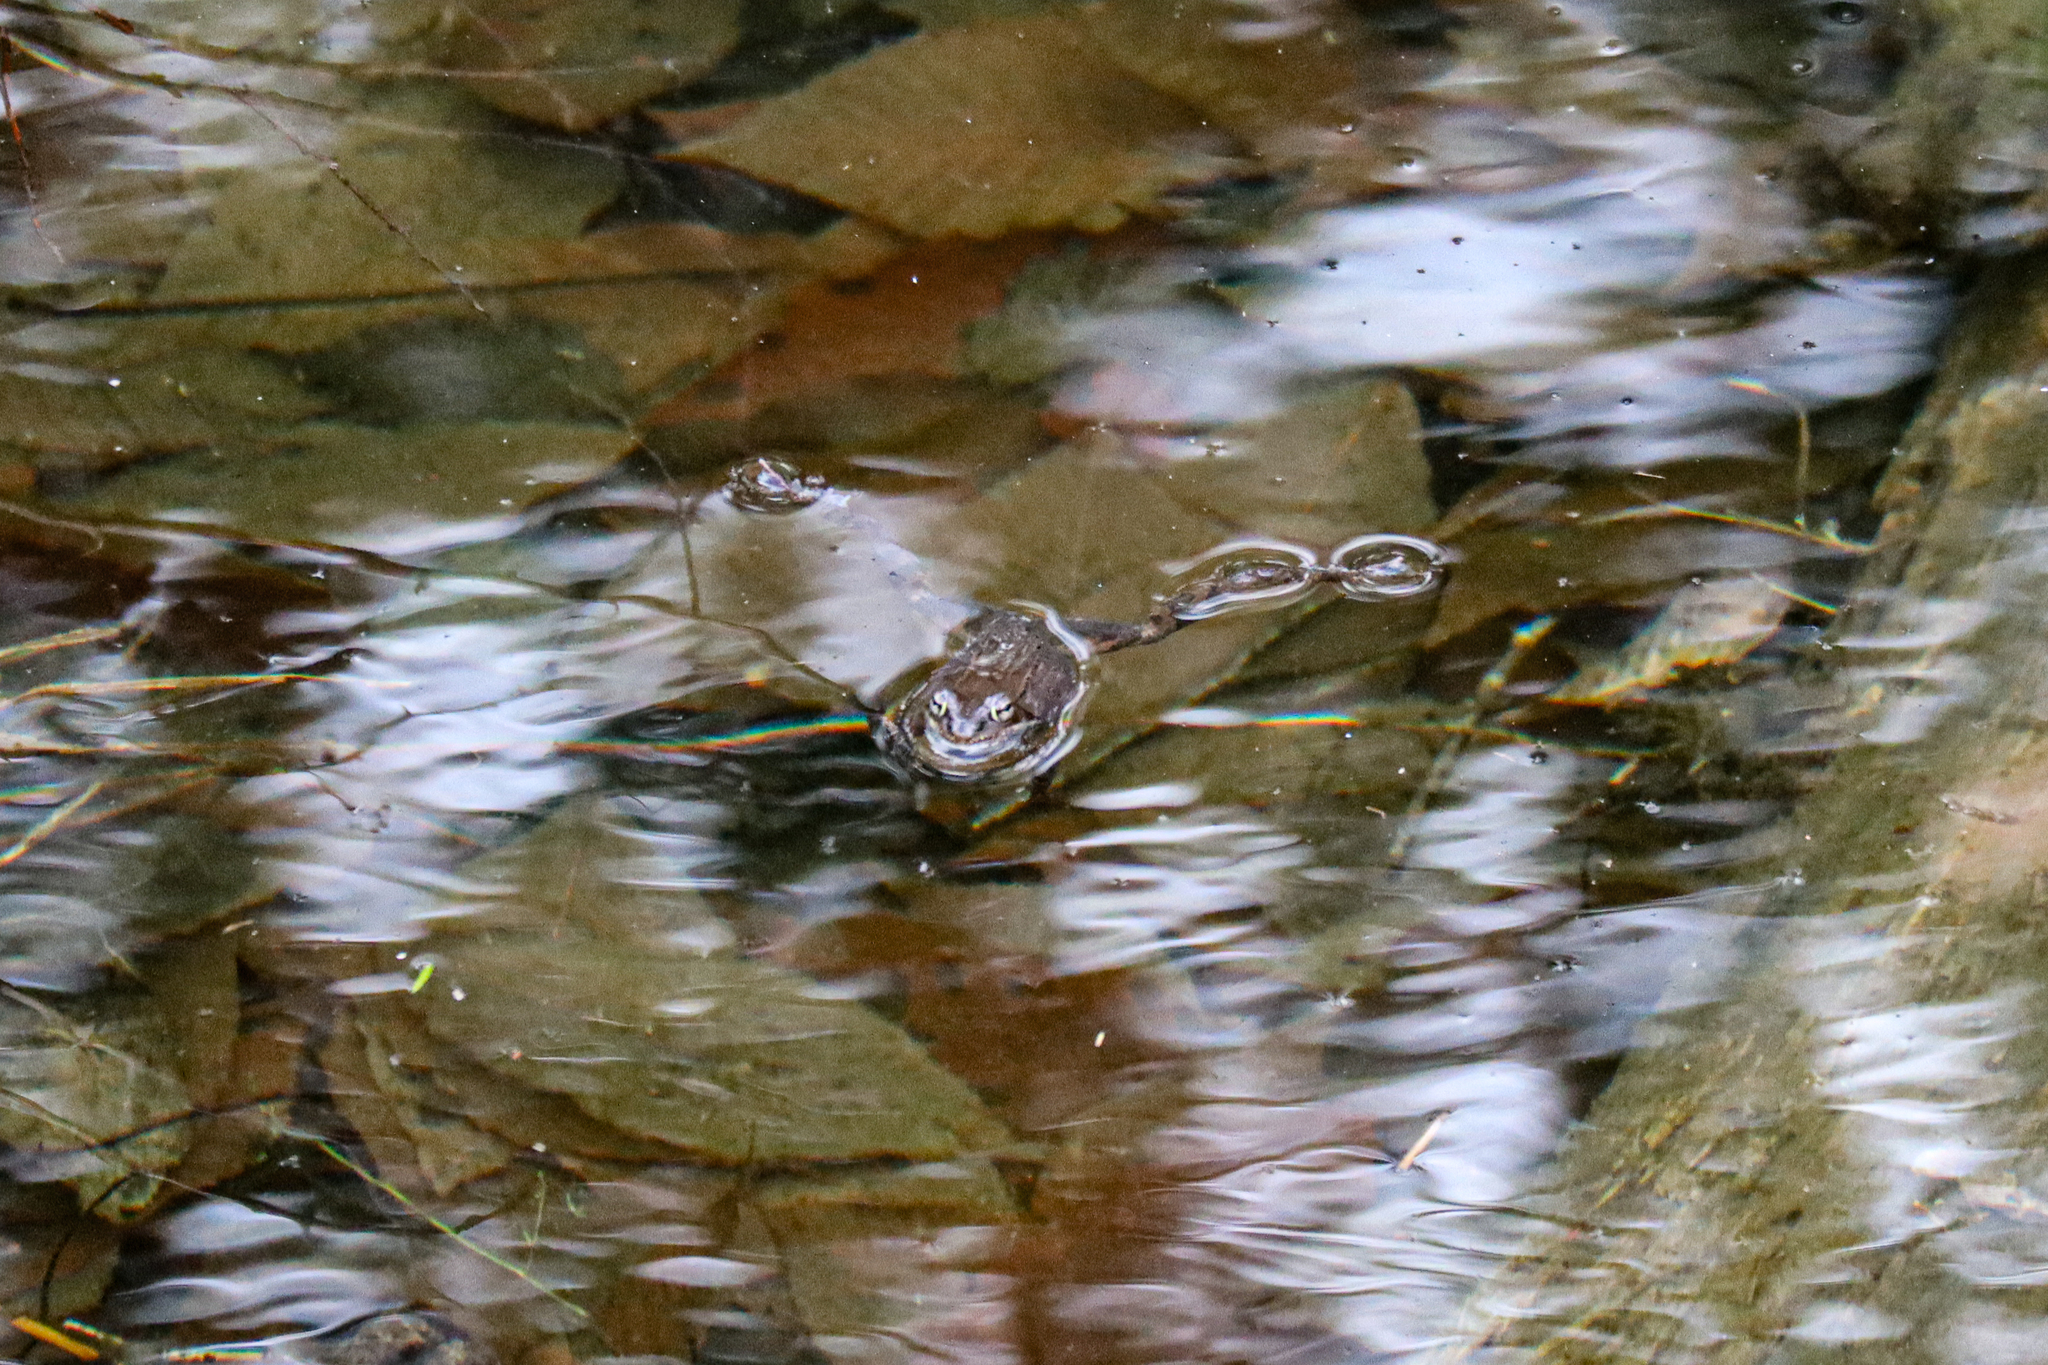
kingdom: Animalia
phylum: Chordata
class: Amphibia
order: Anura
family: Ranidae
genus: Lithobates
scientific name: Lithobates sylvaticus
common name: Wood frog
